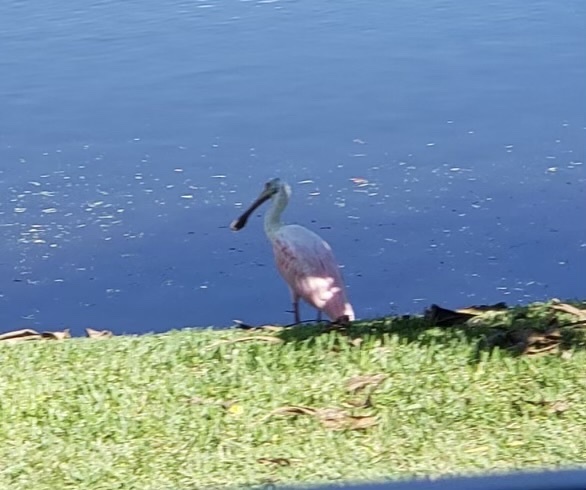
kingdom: Animalia
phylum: Chordata
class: Aves
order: Pelecaniformes
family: Threskiornithidae
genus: Platalea
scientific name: Platalea ajaja
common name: Roseate spoonbill
